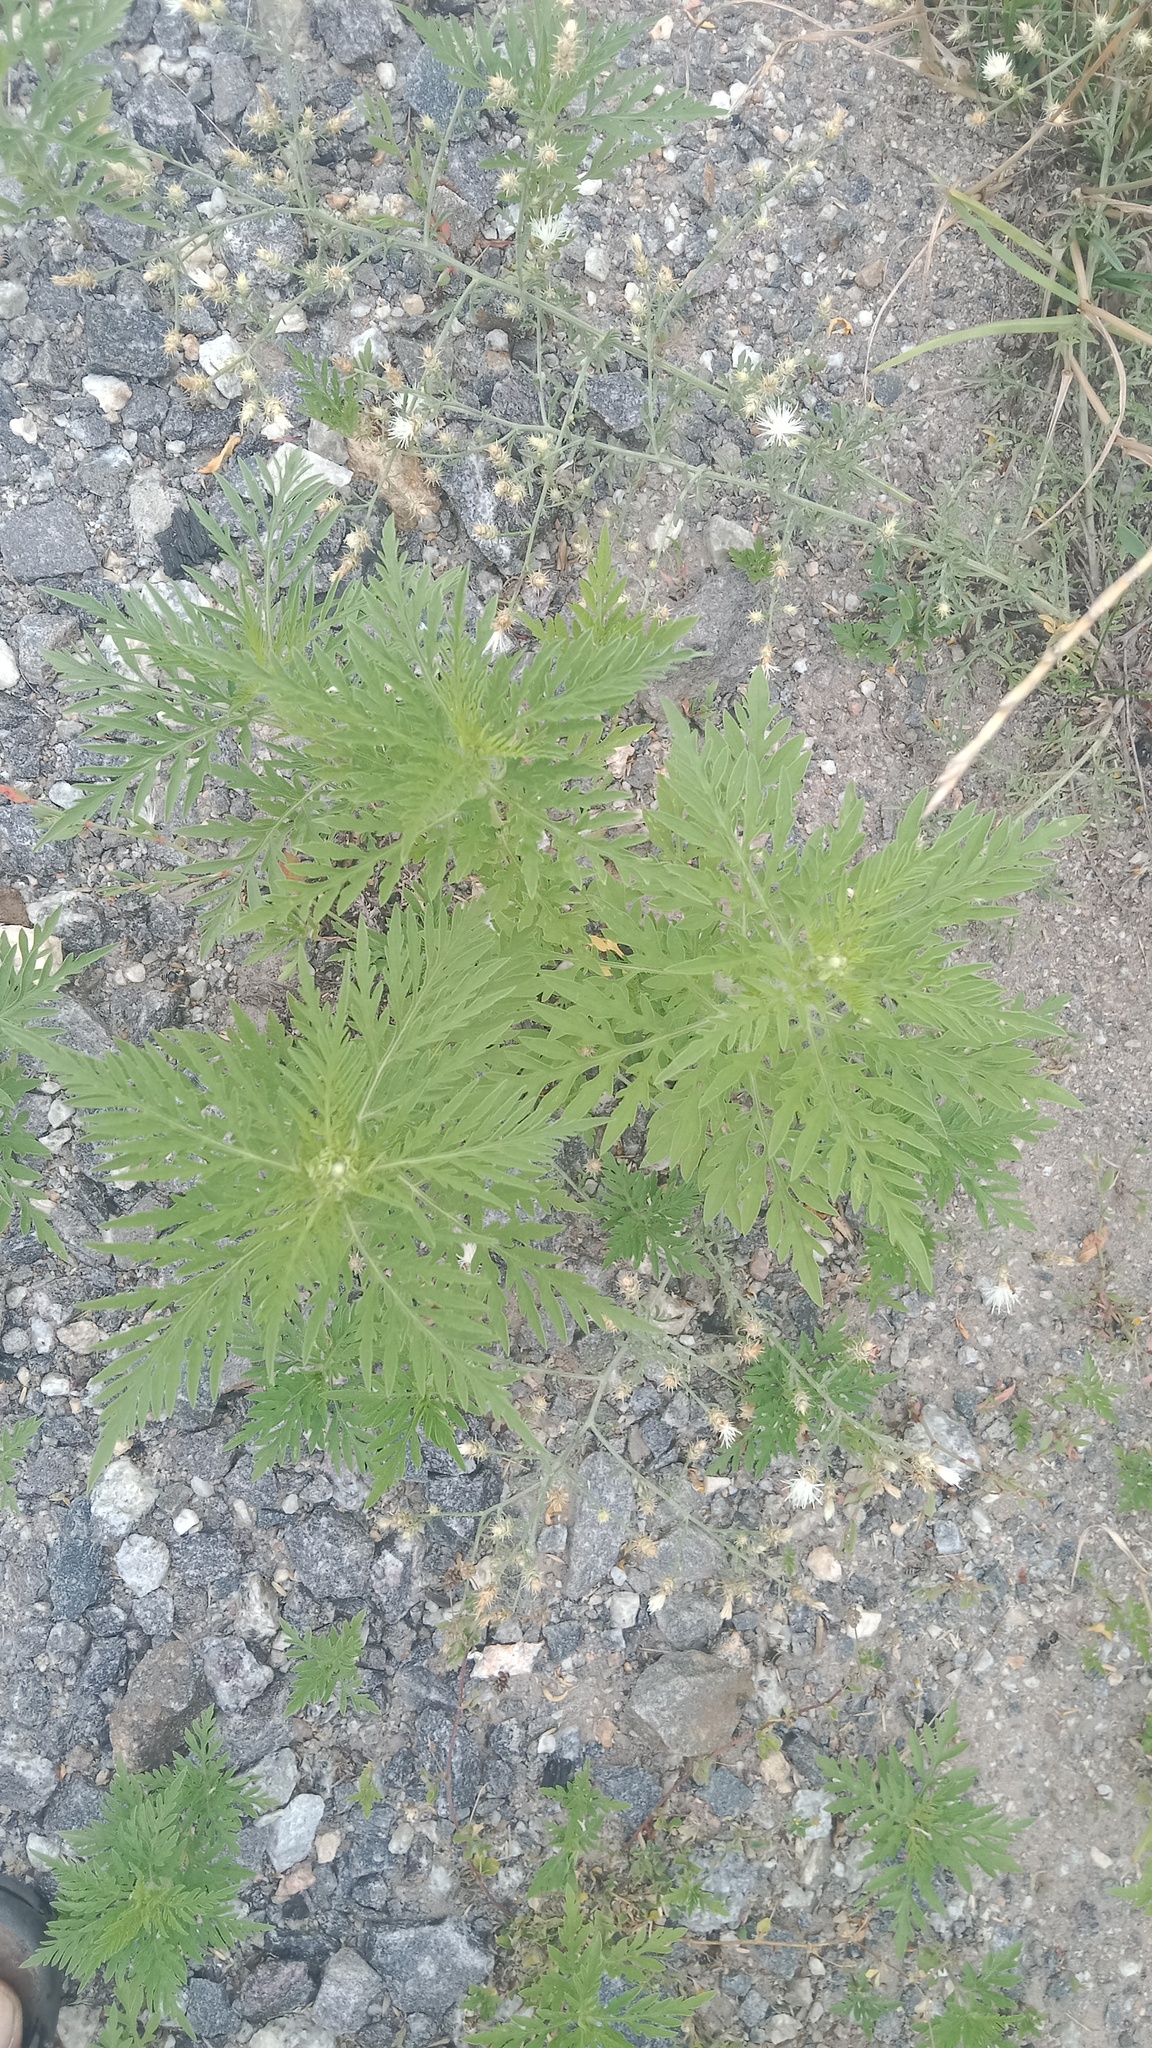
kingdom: Plantae
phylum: Tracheophyta
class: Magnoliopsida
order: Asterales
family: Asteraceae
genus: Ambrosia
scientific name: Ambrosia artemisiifolia
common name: Annual ragweed
